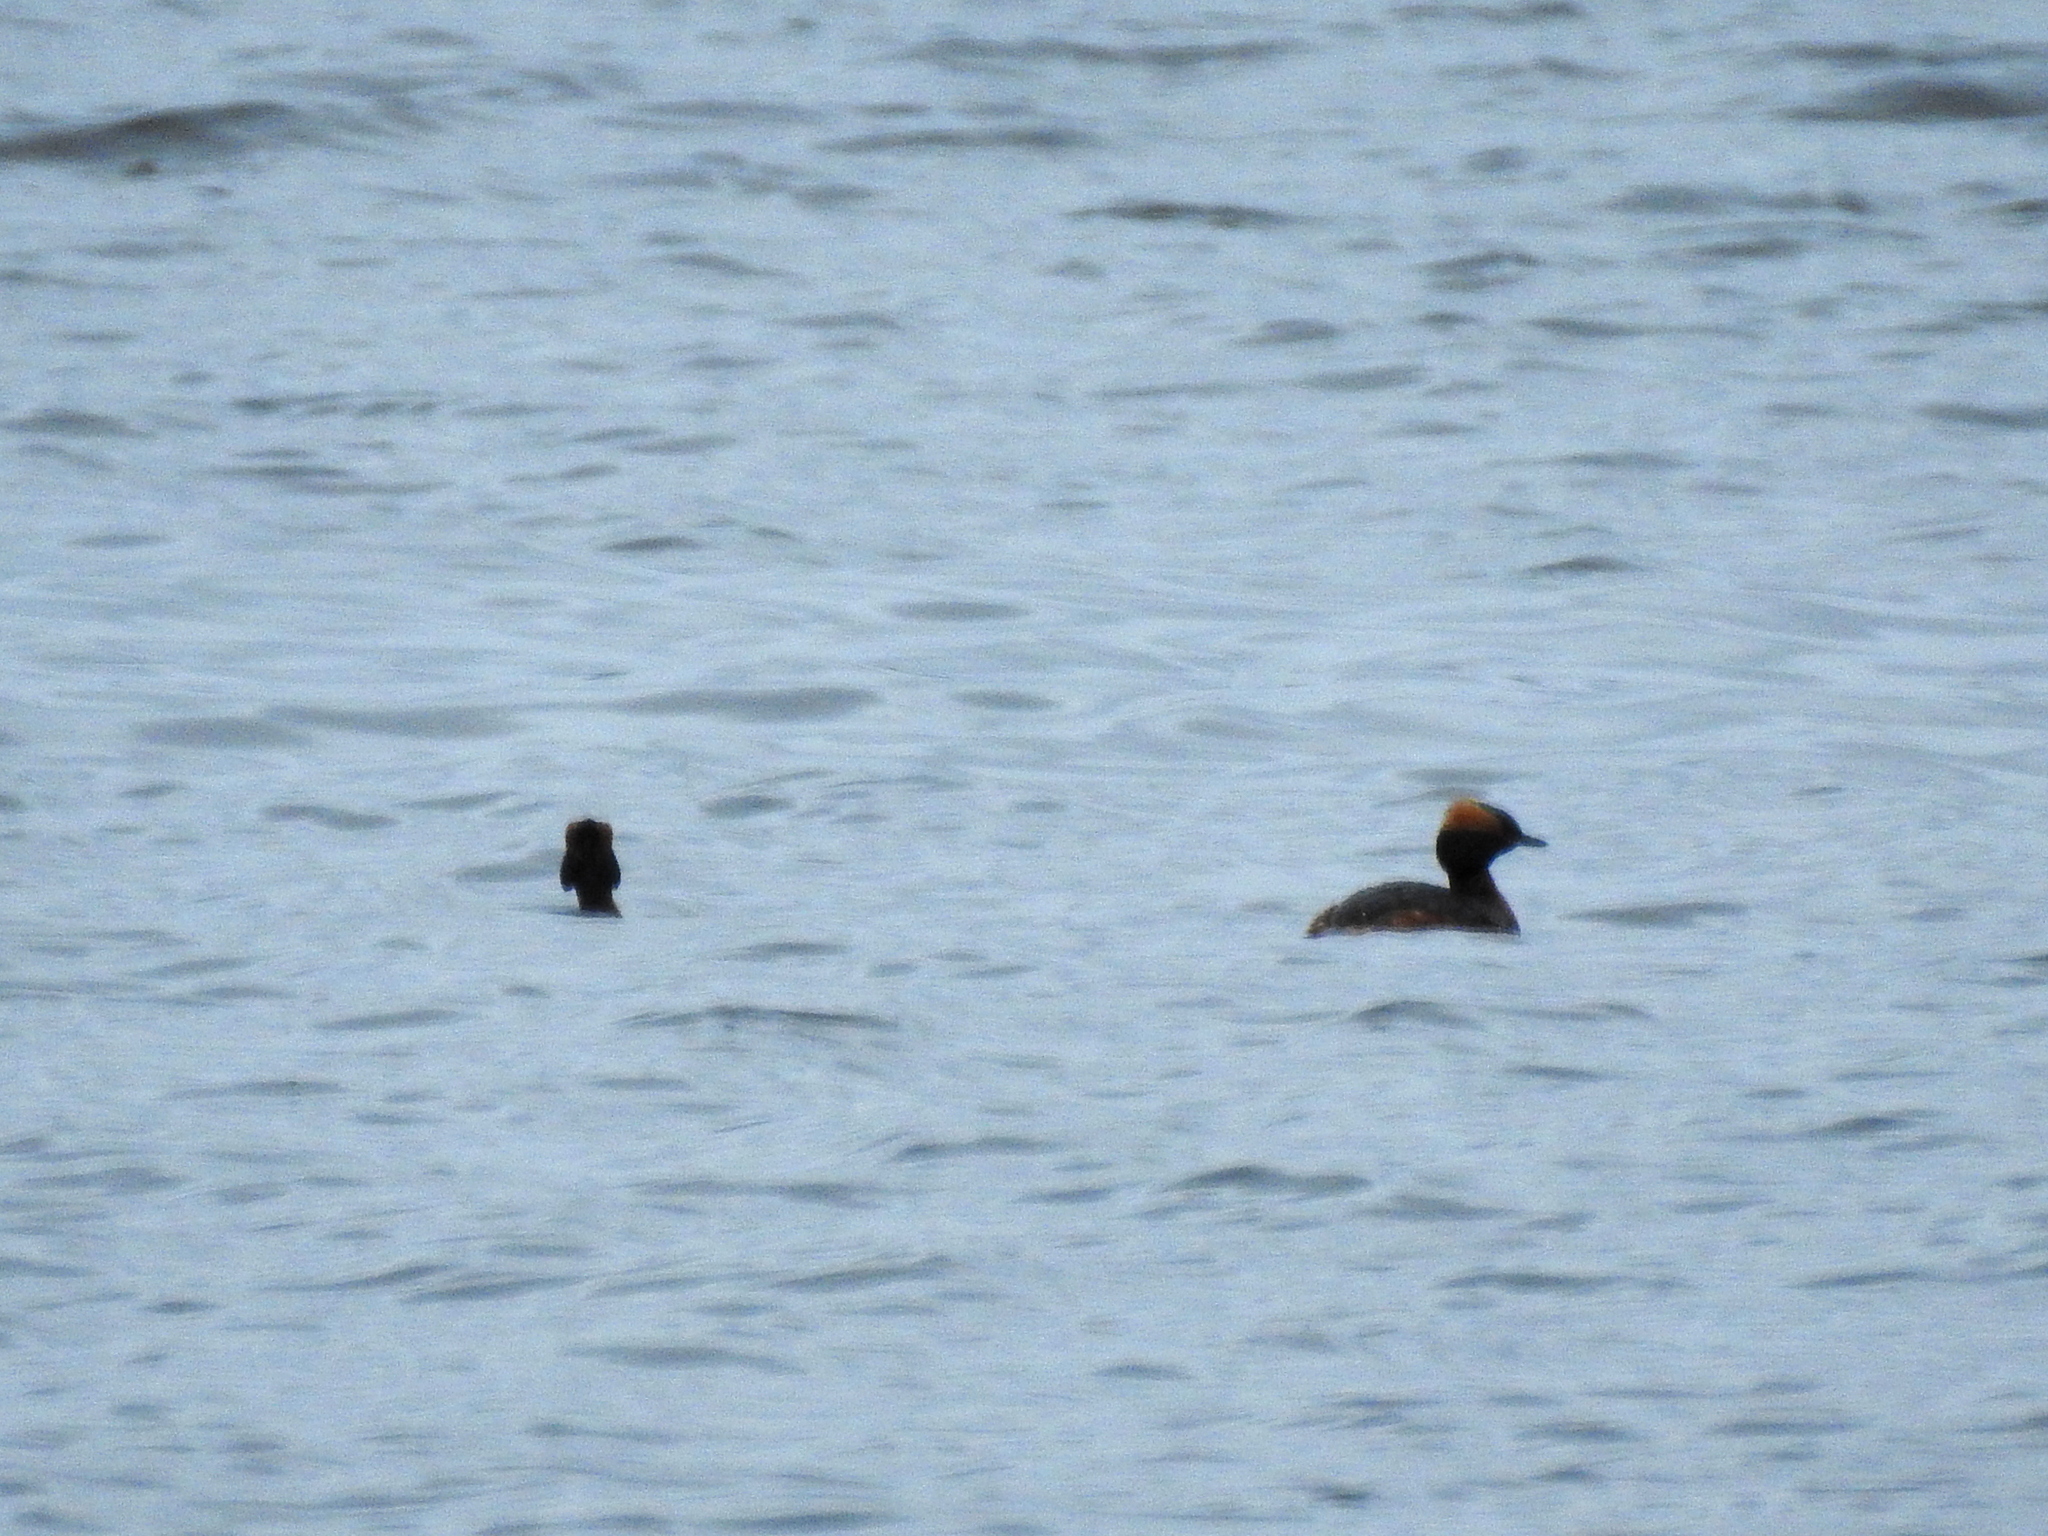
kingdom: Animalia
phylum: Chordata
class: Aves
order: Podicipediformes
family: Podicipedidae
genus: Podiceps
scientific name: Podiceps auritus
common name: Horned grebe
